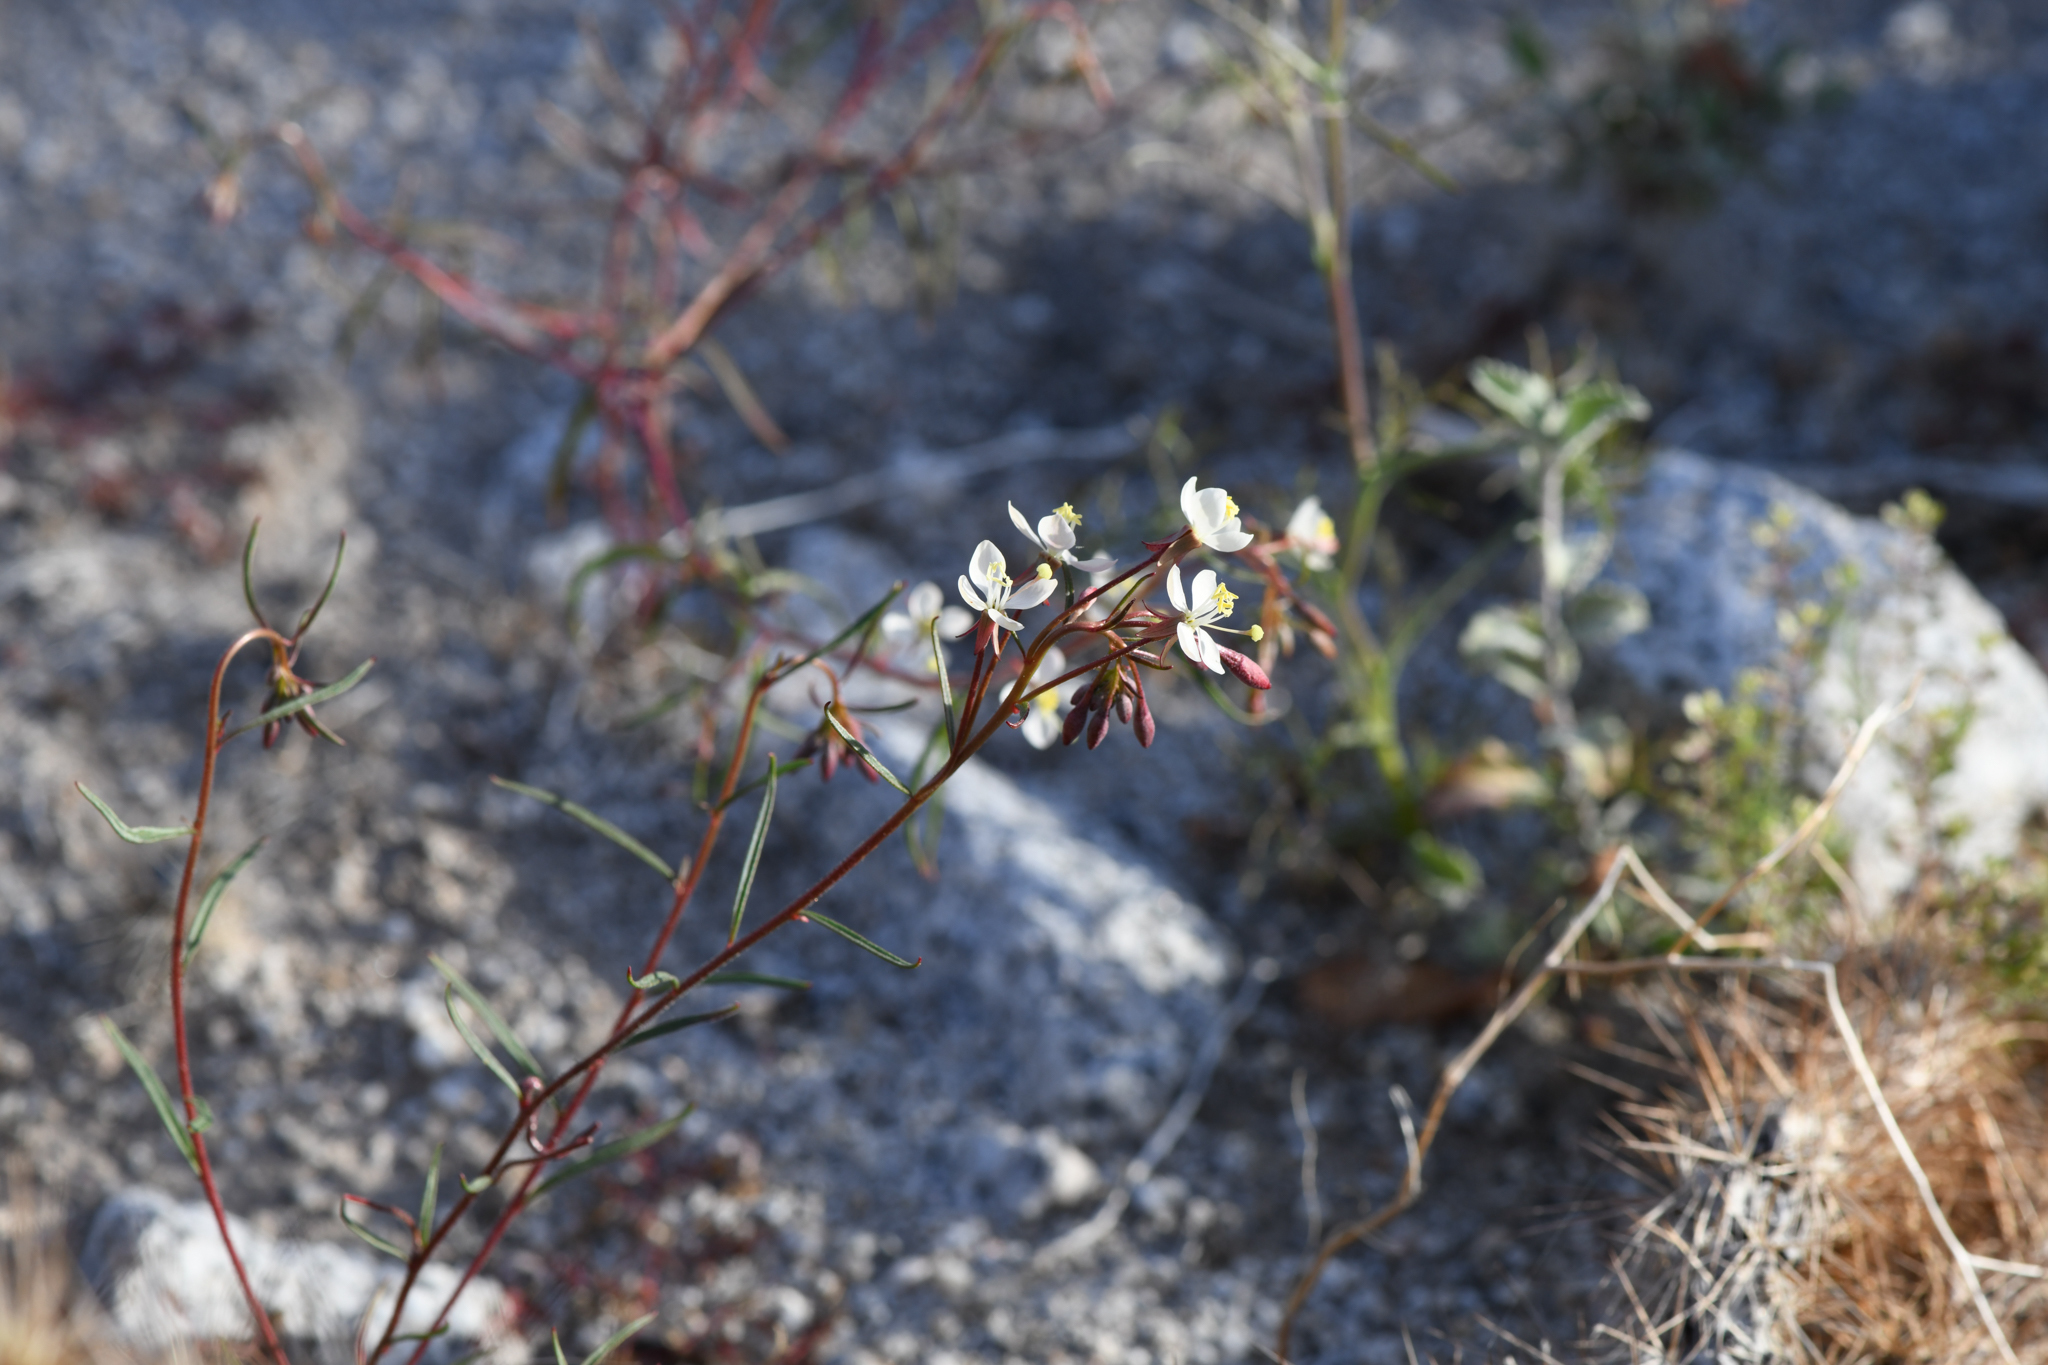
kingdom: Plantae
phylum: Tracheophyta
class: Magnoliopsida
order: Myrtales
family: Onagraceae
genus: Eremothera
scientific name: Eremothera refracta
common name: Narrowleaf suncup
